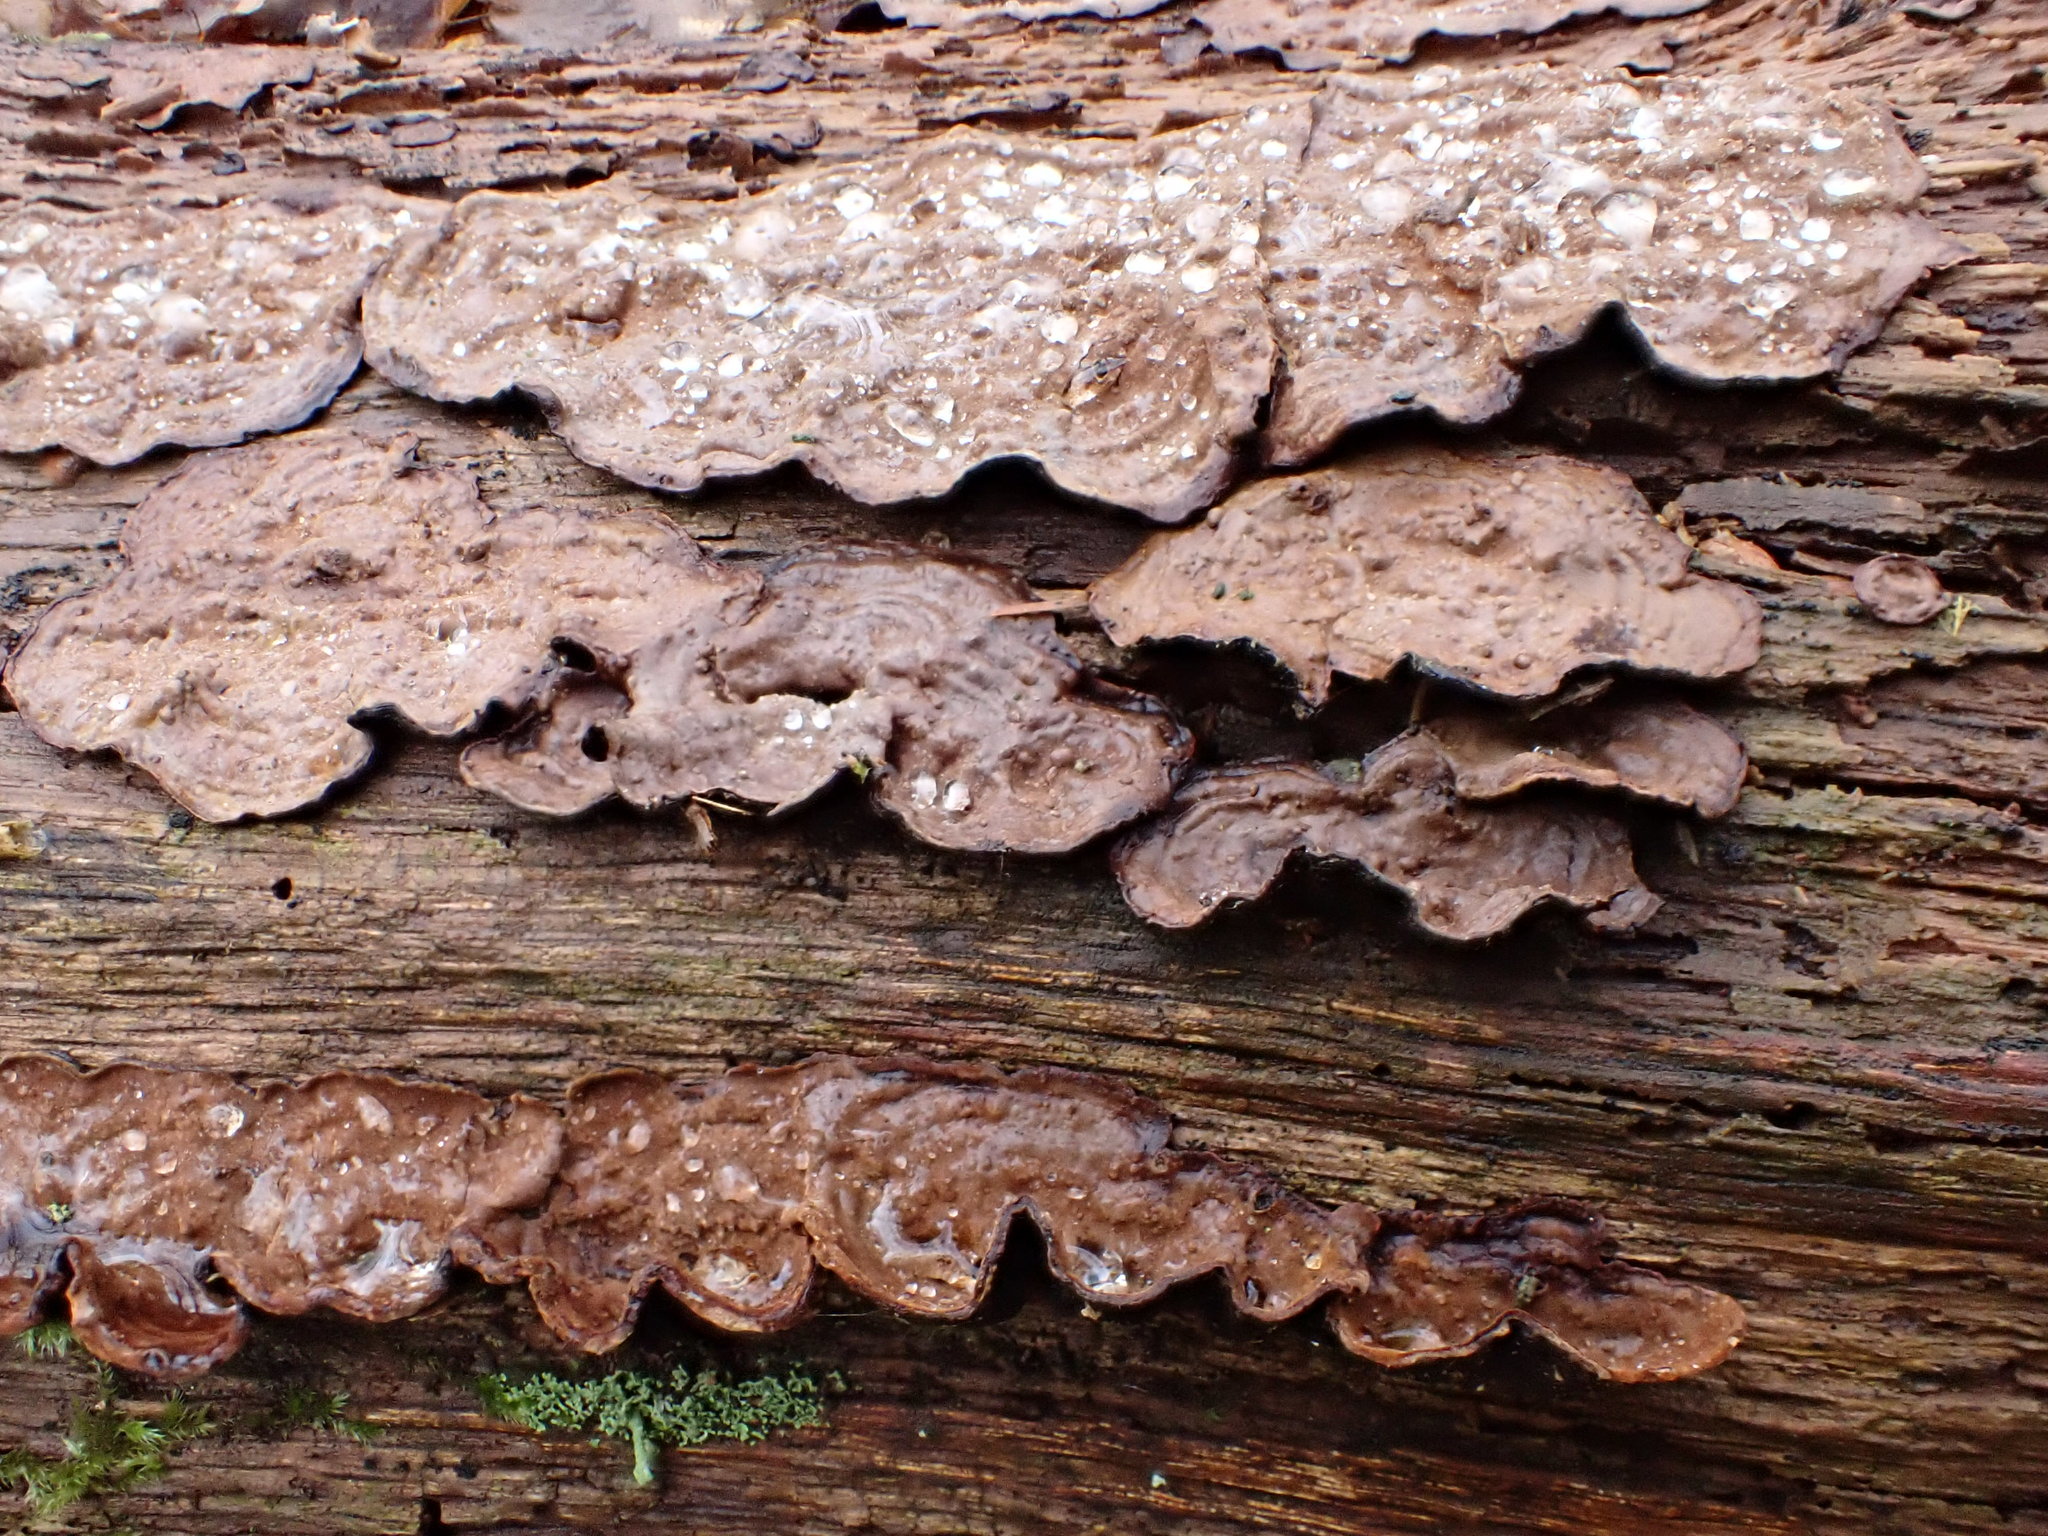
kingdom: Fungi
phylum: Basidiomycota
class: Agaricomycetes
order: Hymenochaetales
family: Hymenochaetaceae
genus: Hymenochaete
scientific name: Hymenochaete rubiginosa
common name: Oak curtain crust
